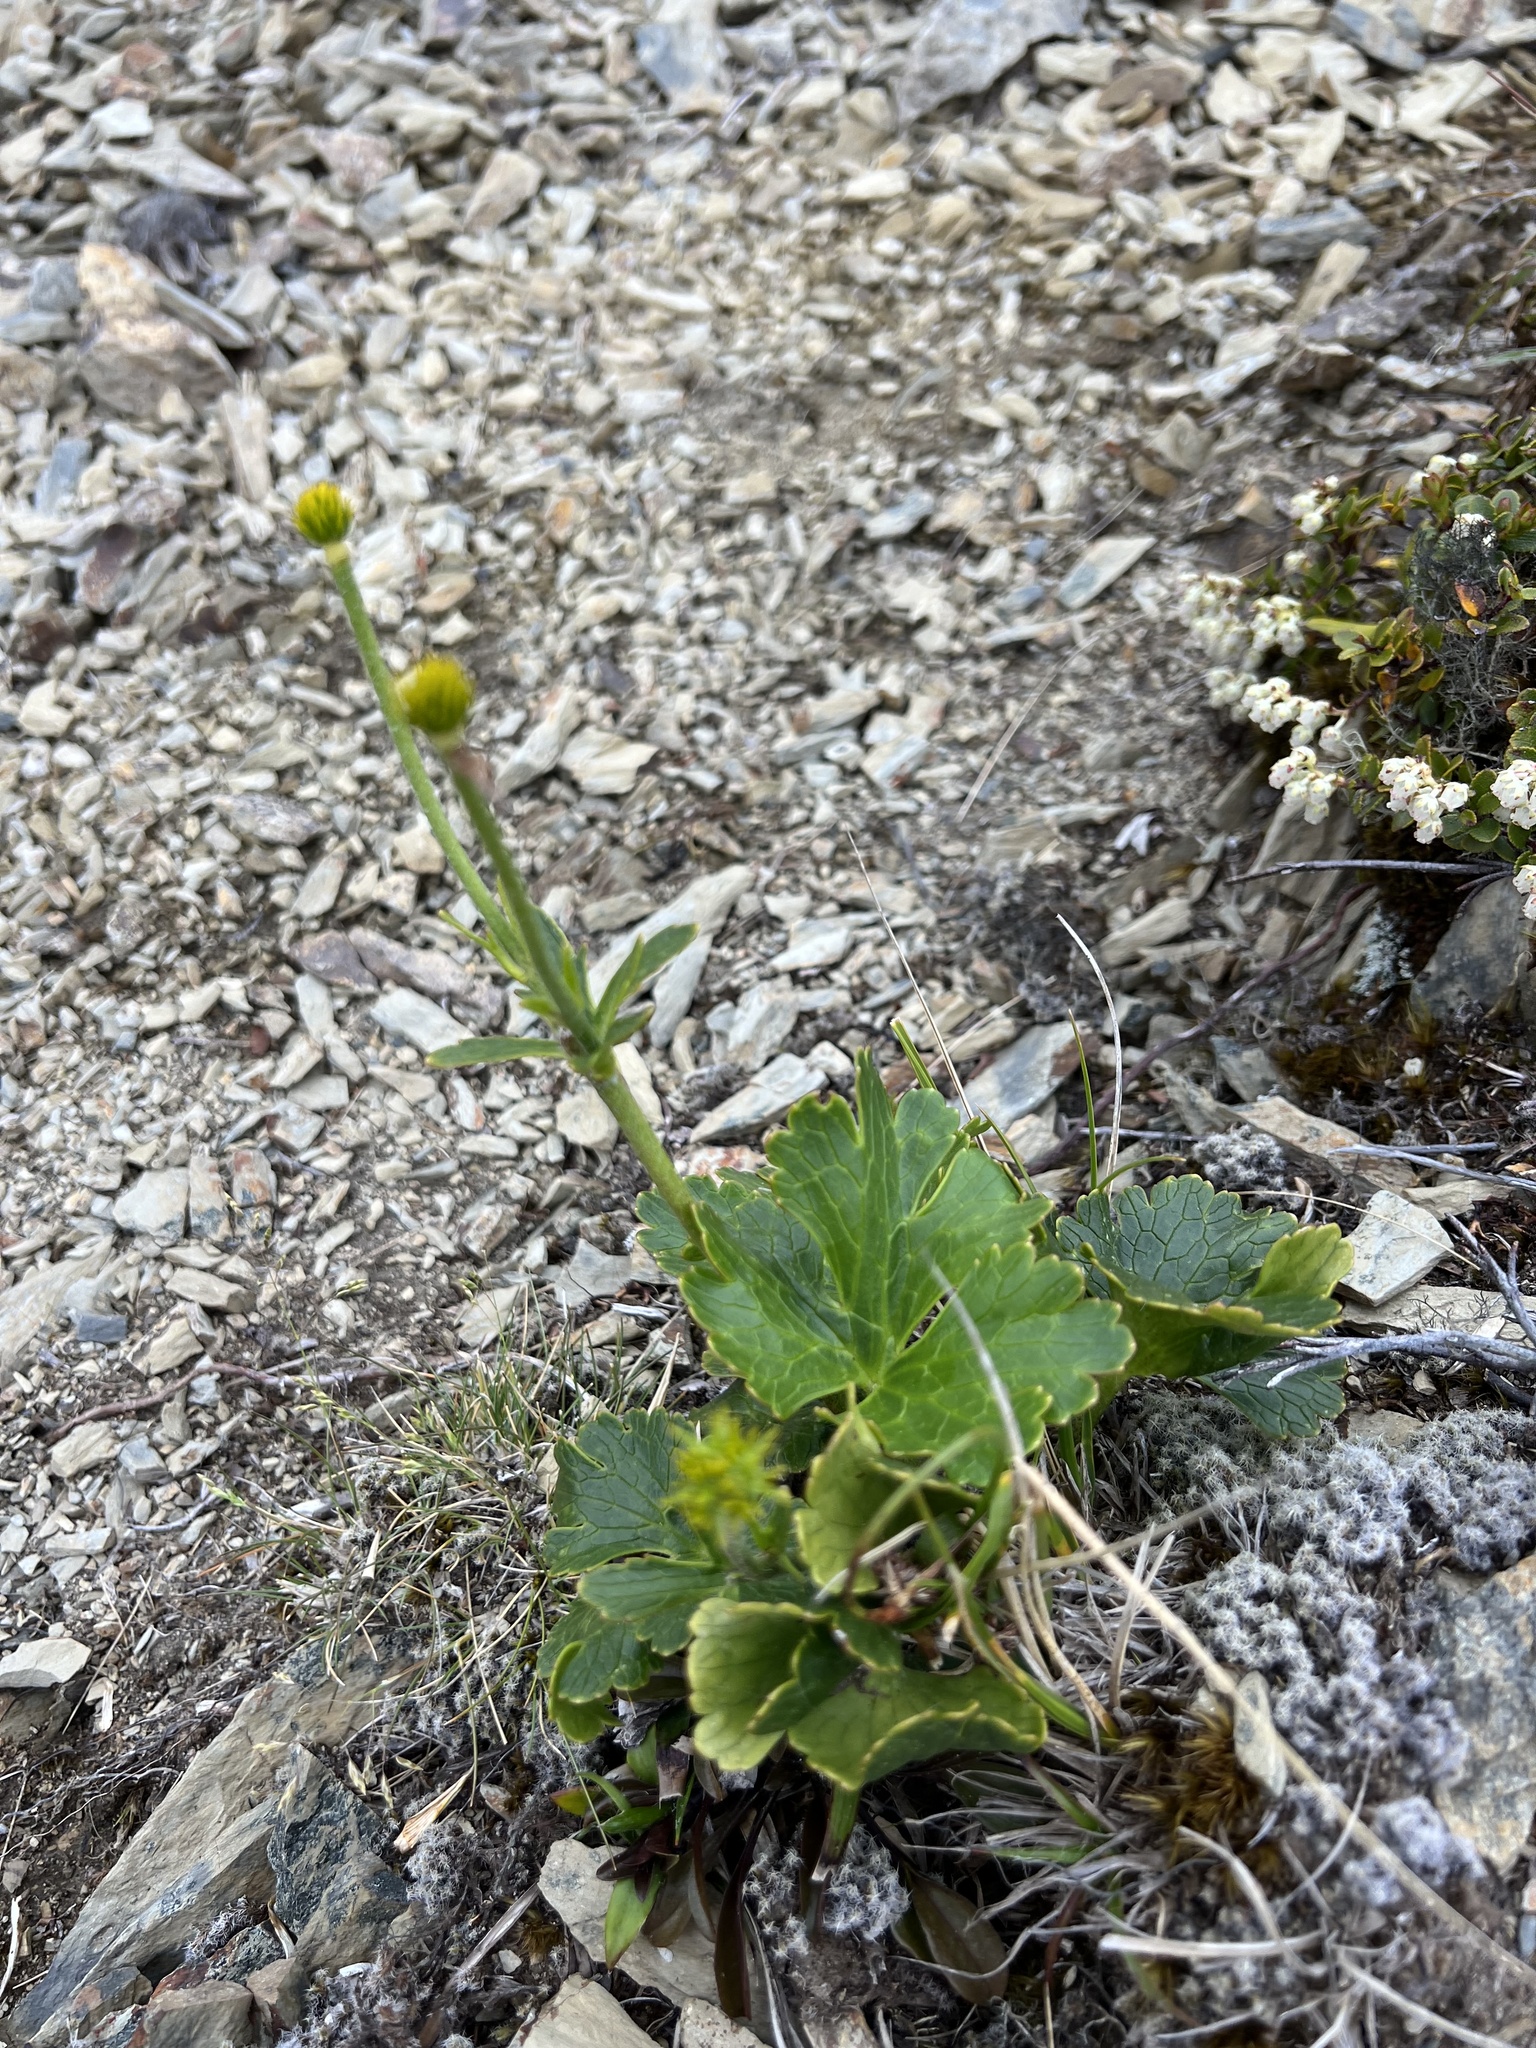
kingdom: Plantae
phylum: Tracheophyta
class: Magnoliopsida
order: Ranunculales
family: Ranunculaceae
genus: Ranunculus
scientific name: Ranunculus nivicola
